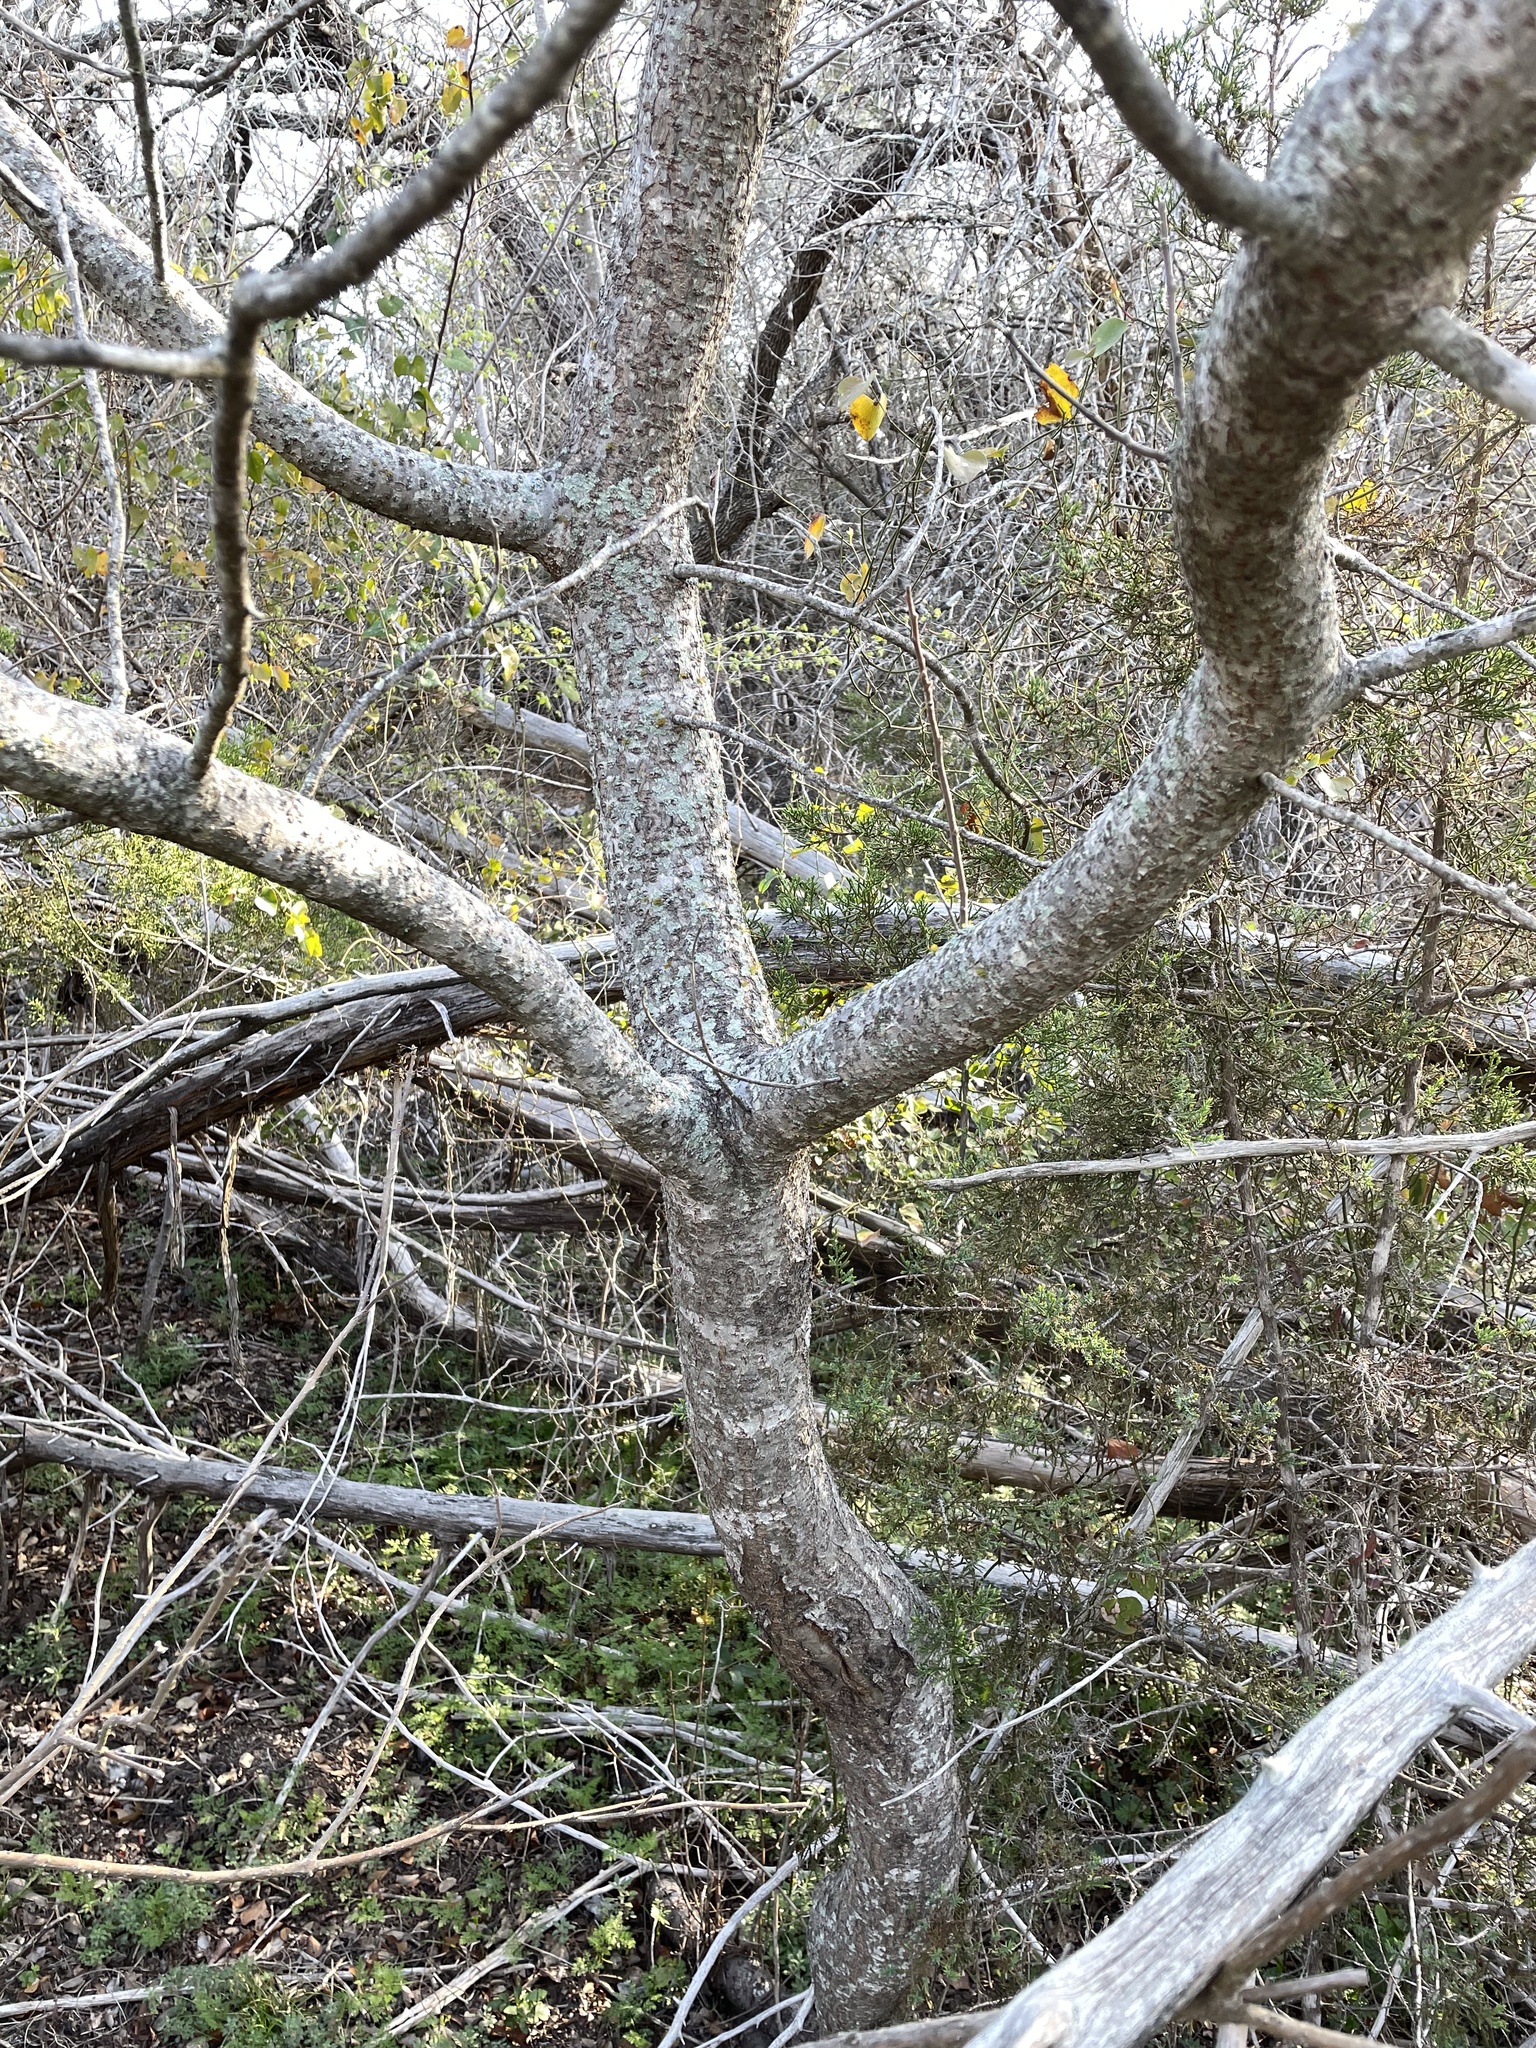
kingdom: Plantae
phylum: Tracheophyta
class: Magnoliopsida
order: Sapindales
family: Anacardiaceae
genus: Rhus
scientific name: Rhus lanceolata
